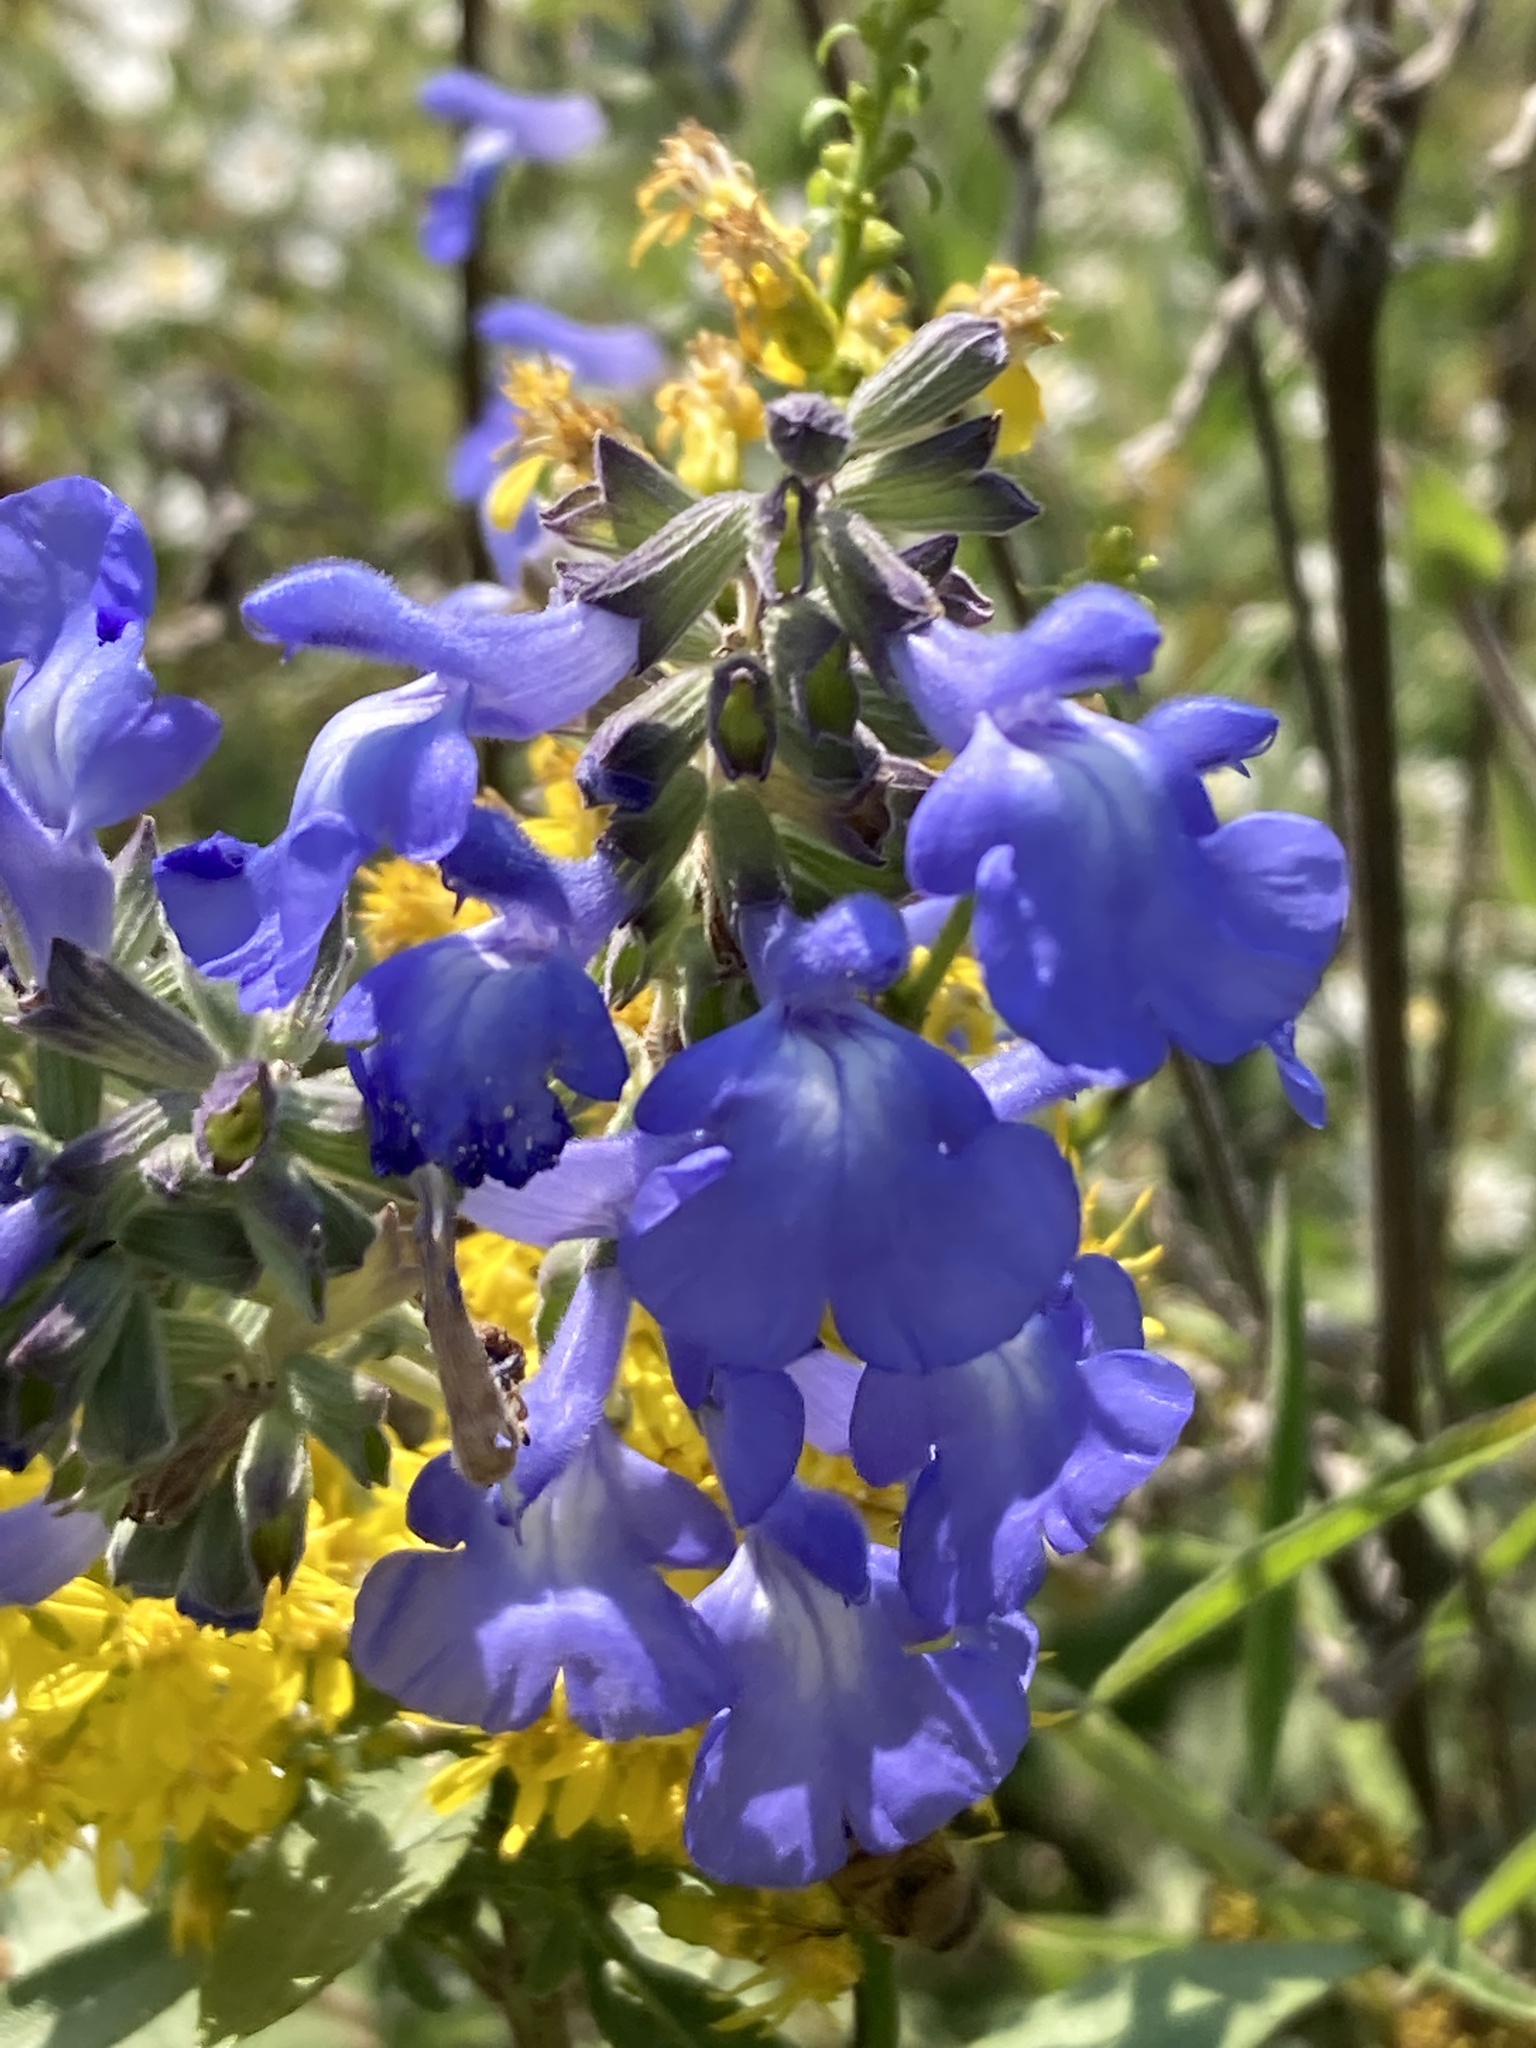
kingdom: Plantae
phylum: Tracheophyta
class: Magnoliopsida
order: Lamiales
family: Lamiaceae
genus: Salvia
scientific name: Salvia azurea
